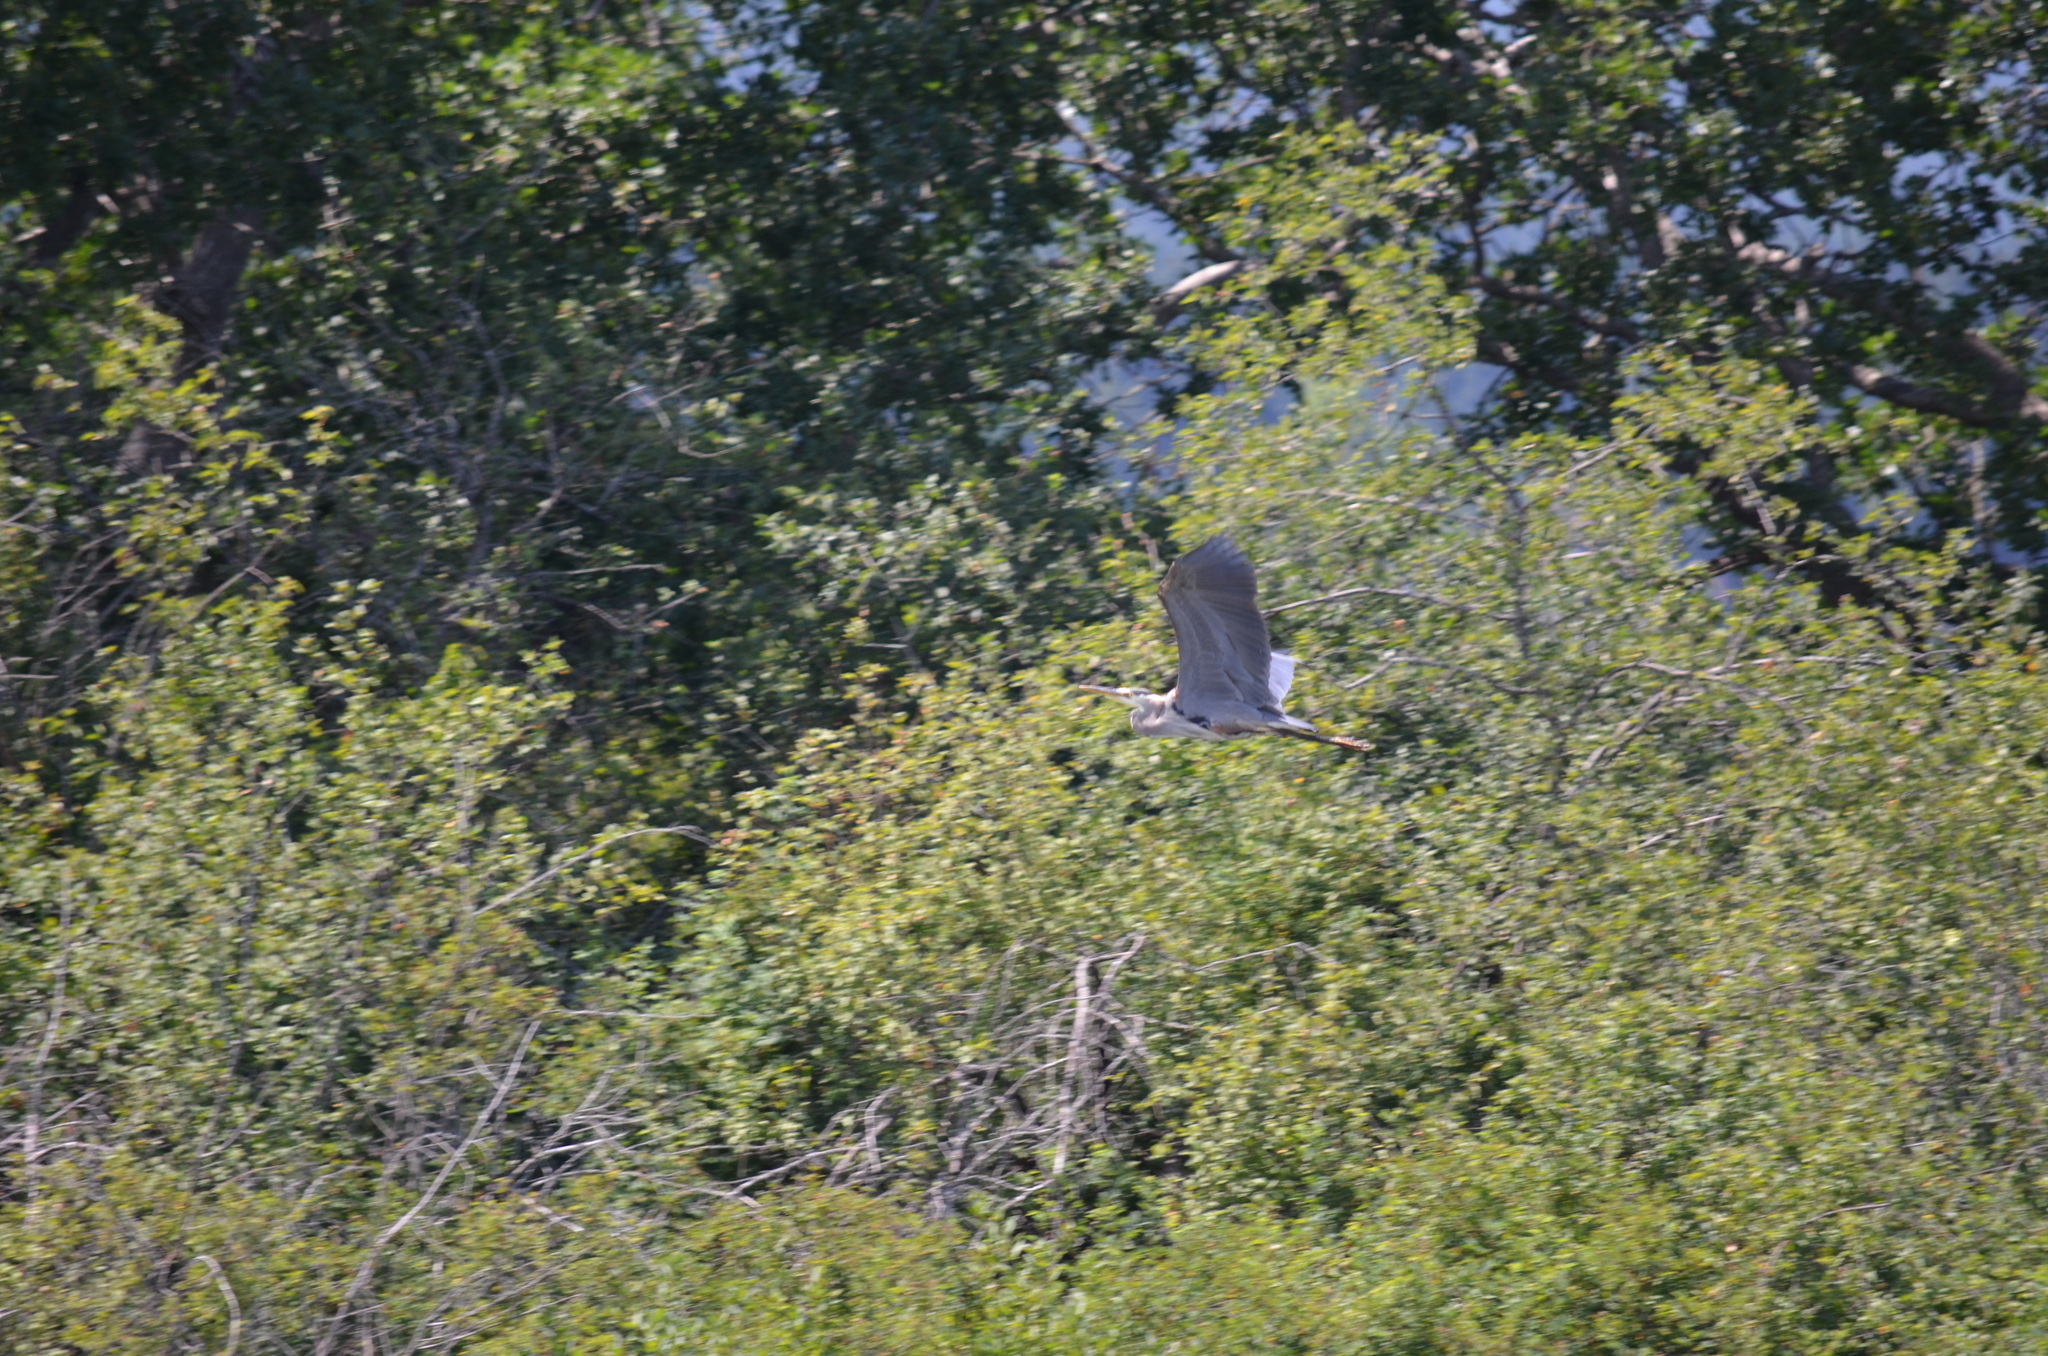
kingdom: Animalia
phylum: Chordata
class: Aves
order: Pelecaniformes
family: Ardeidae
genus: Ardea
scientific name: Ardea herodias
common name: Great blue heron
